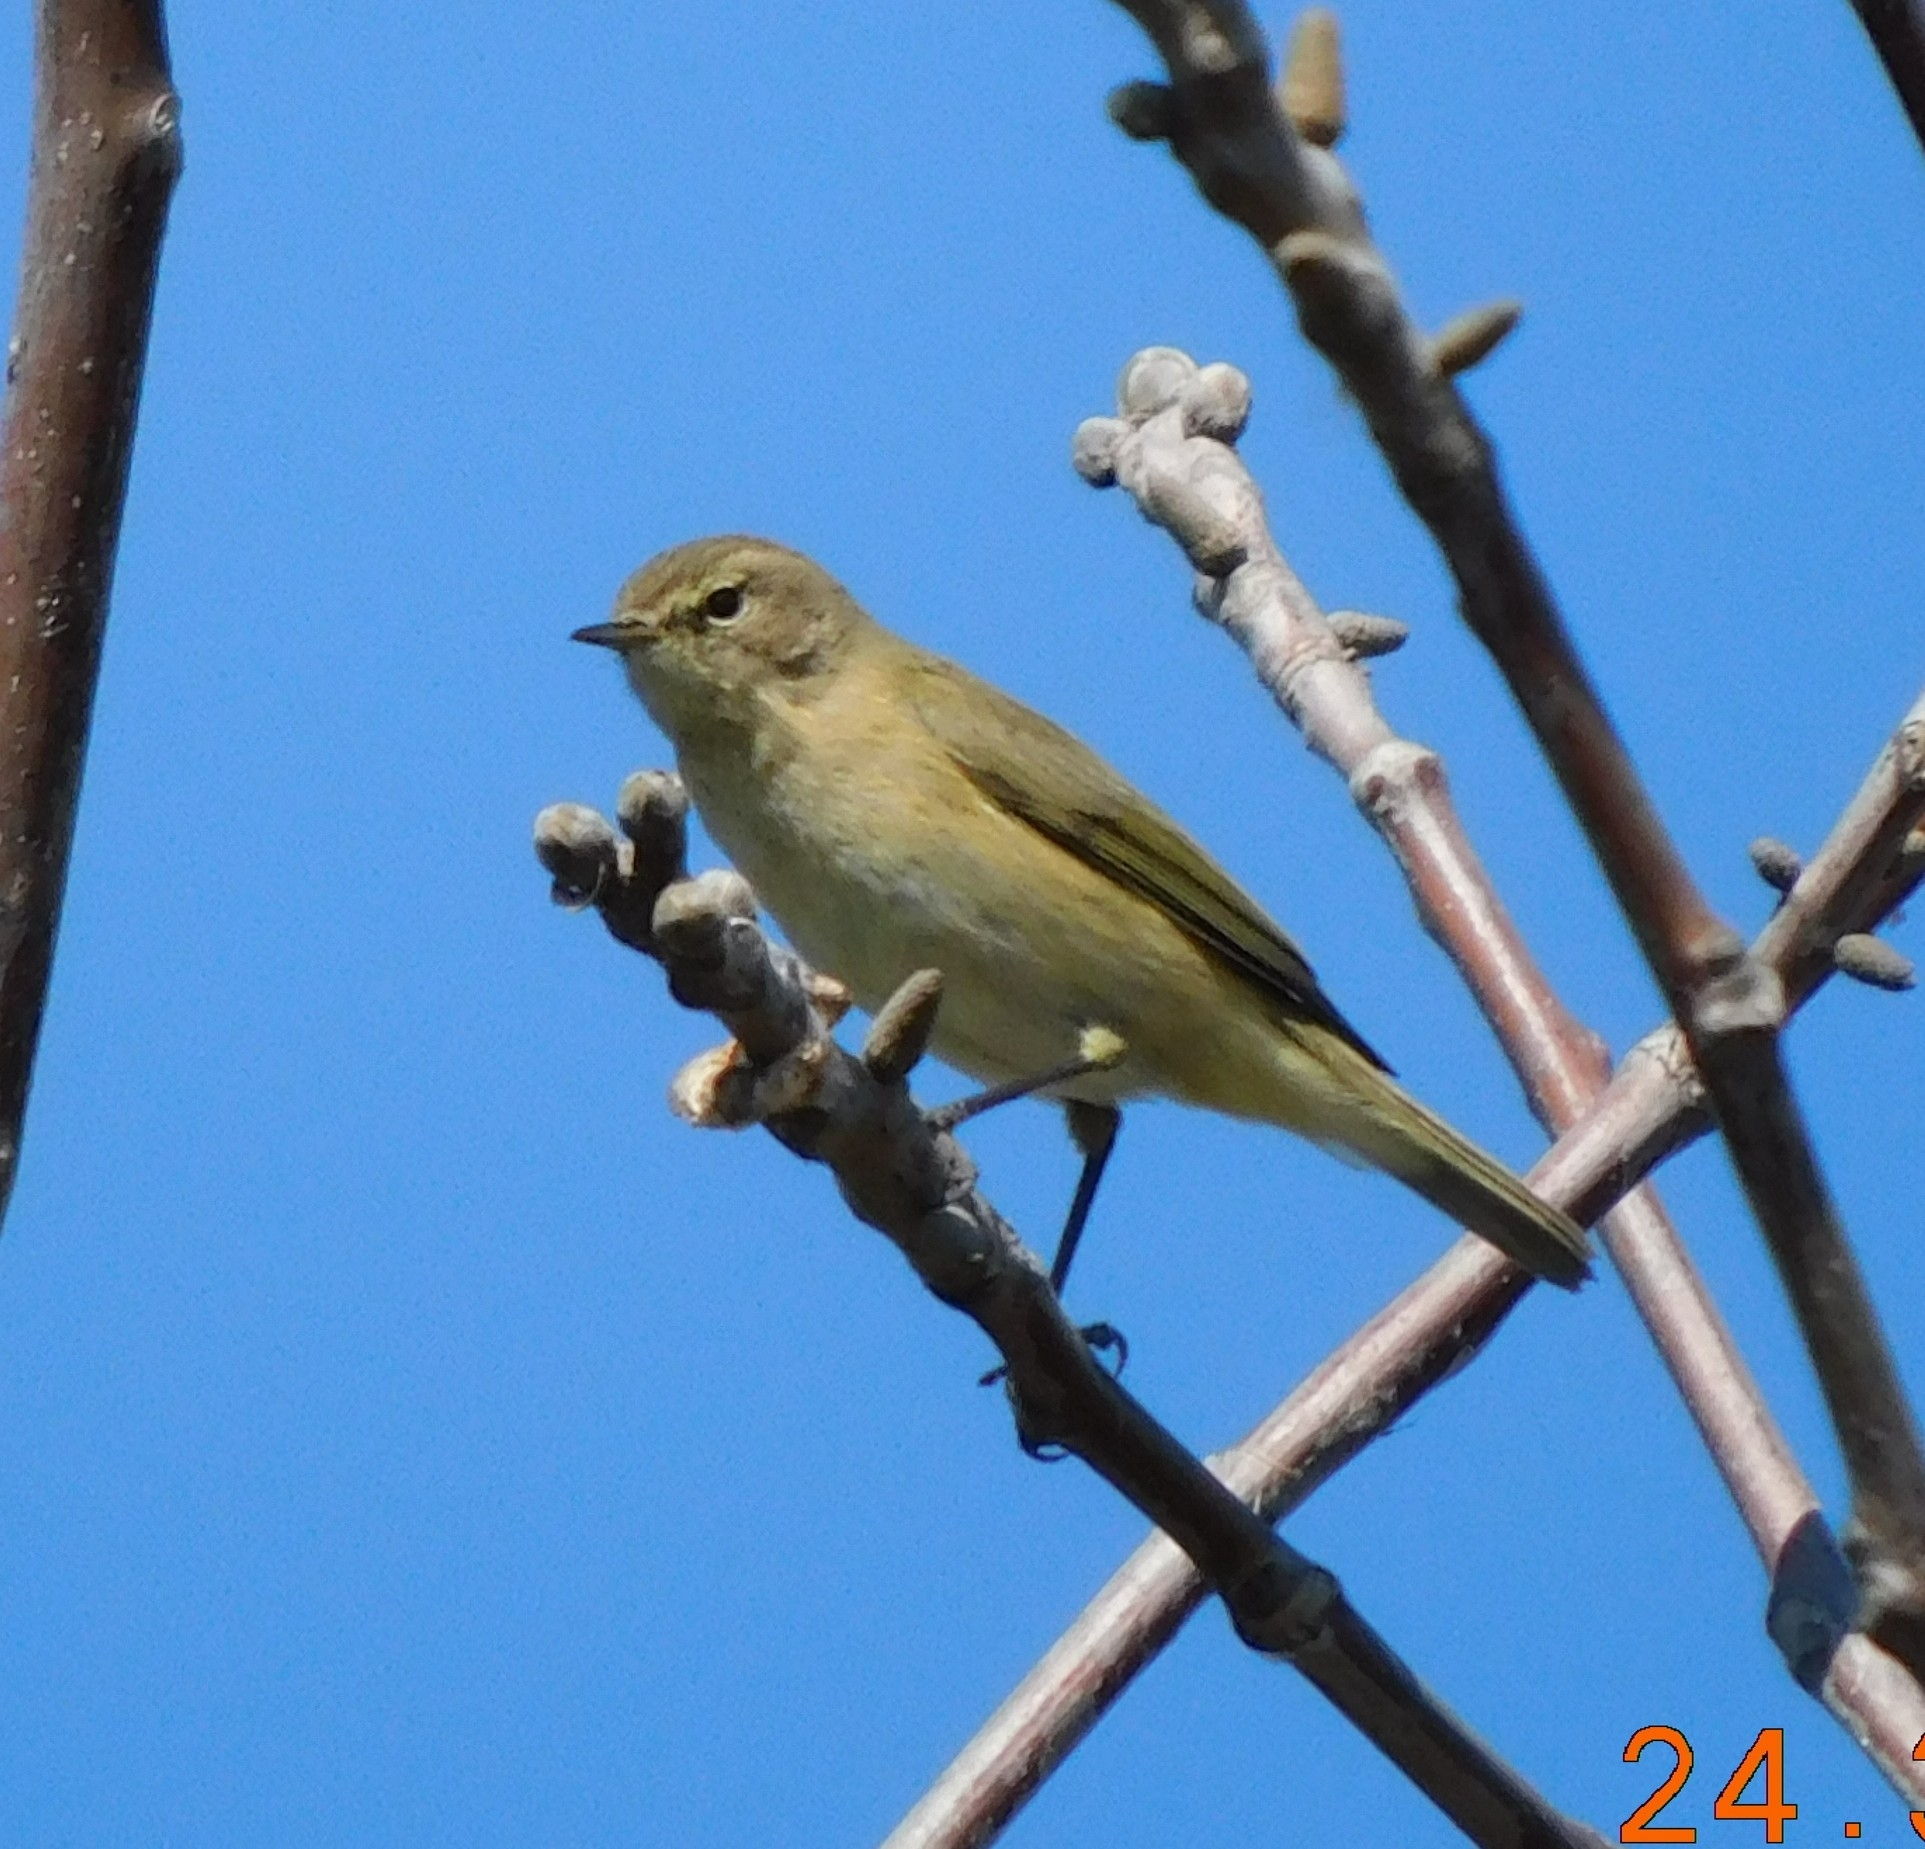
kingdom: Animalia
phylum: Chordata
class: Aves
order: Passeriformes
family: Phylloscopidae
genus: Phylloscopus
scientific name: Phylloscopus collybita
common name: Common chiffchaff
